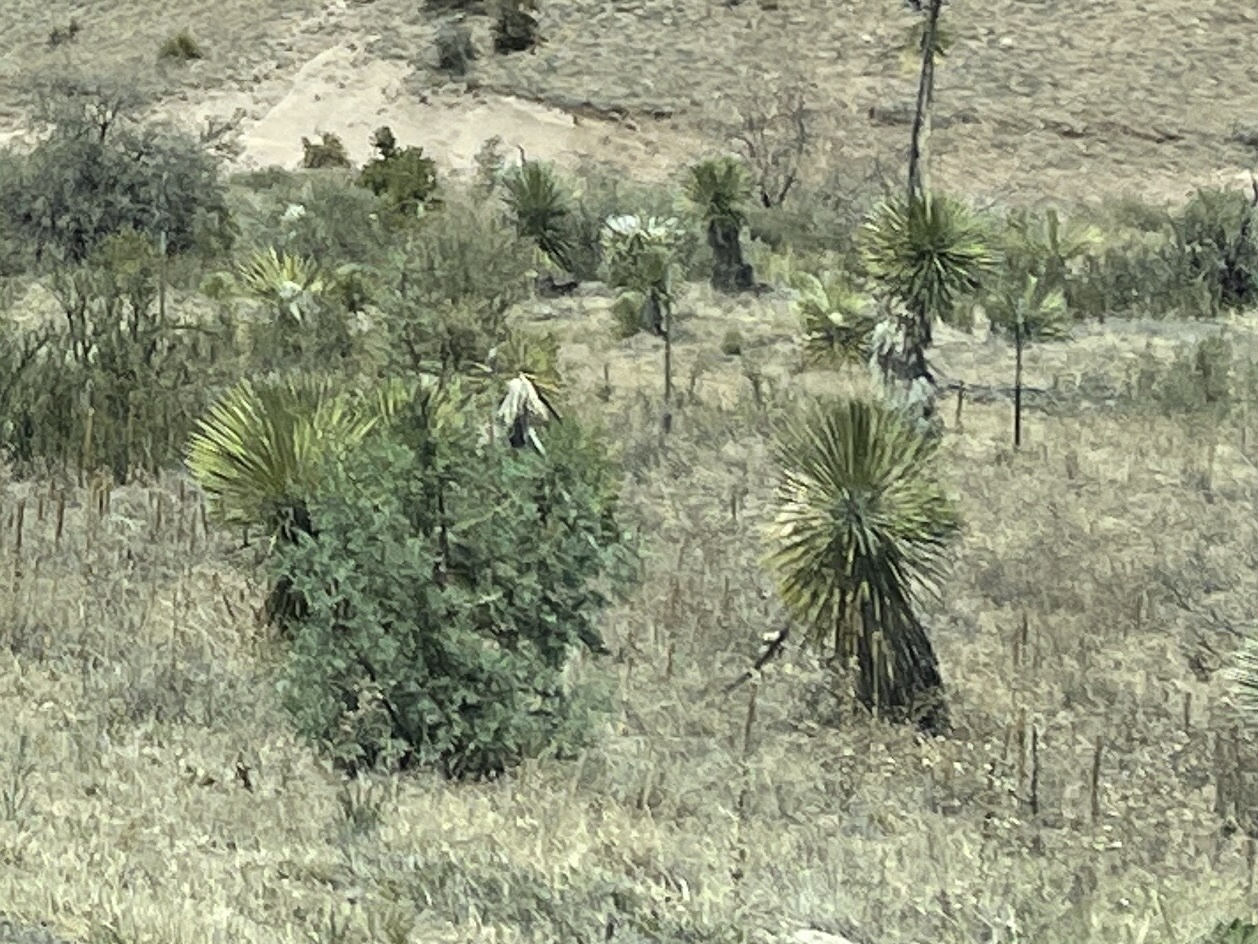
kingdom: Plantae
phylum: Tracheophyta
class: Liliopsida
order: Asparagales
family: Asparagaceae
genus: Yucca
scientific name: Yucca elata
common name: Palmella
